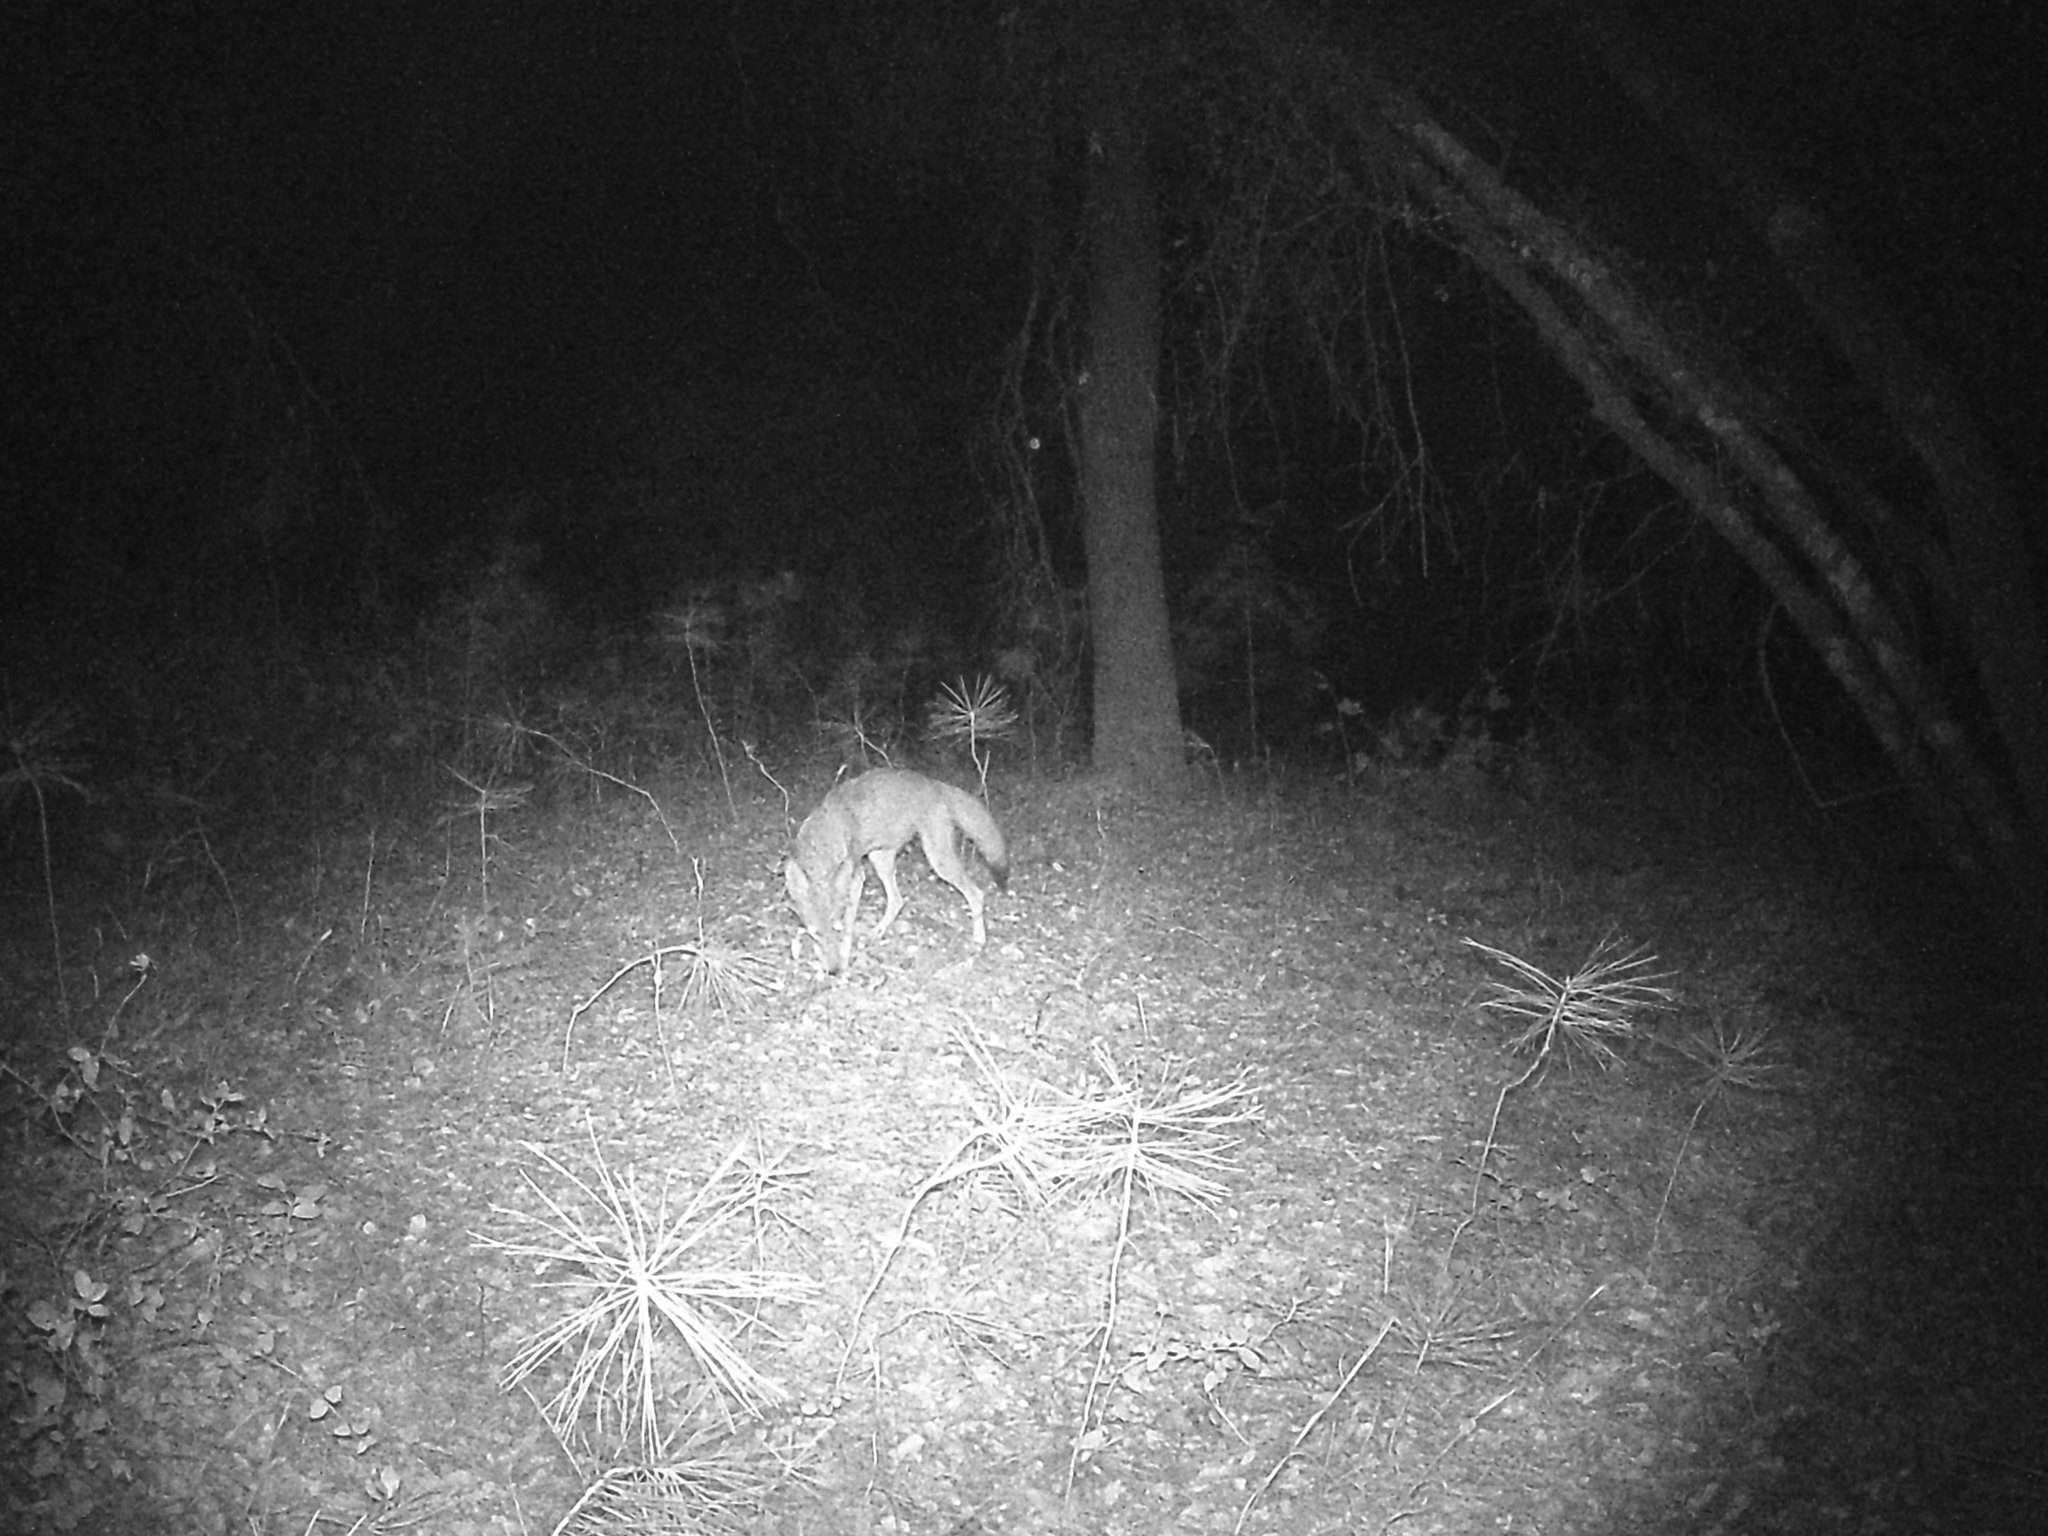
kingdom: Animalia
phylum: Chordata
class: Mammalia
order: Carnivora
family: Canidae
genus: Canis
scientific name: Canis latrans
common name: Coyote
